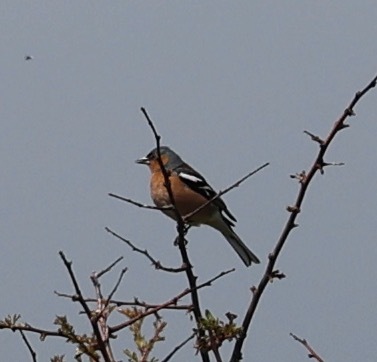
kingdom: Animalia
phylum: Chordata
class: Aves
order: Passeriformes
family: Fringillidae
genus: Fringilla
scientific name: Fringilla coelebs
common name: Common chaffinch
